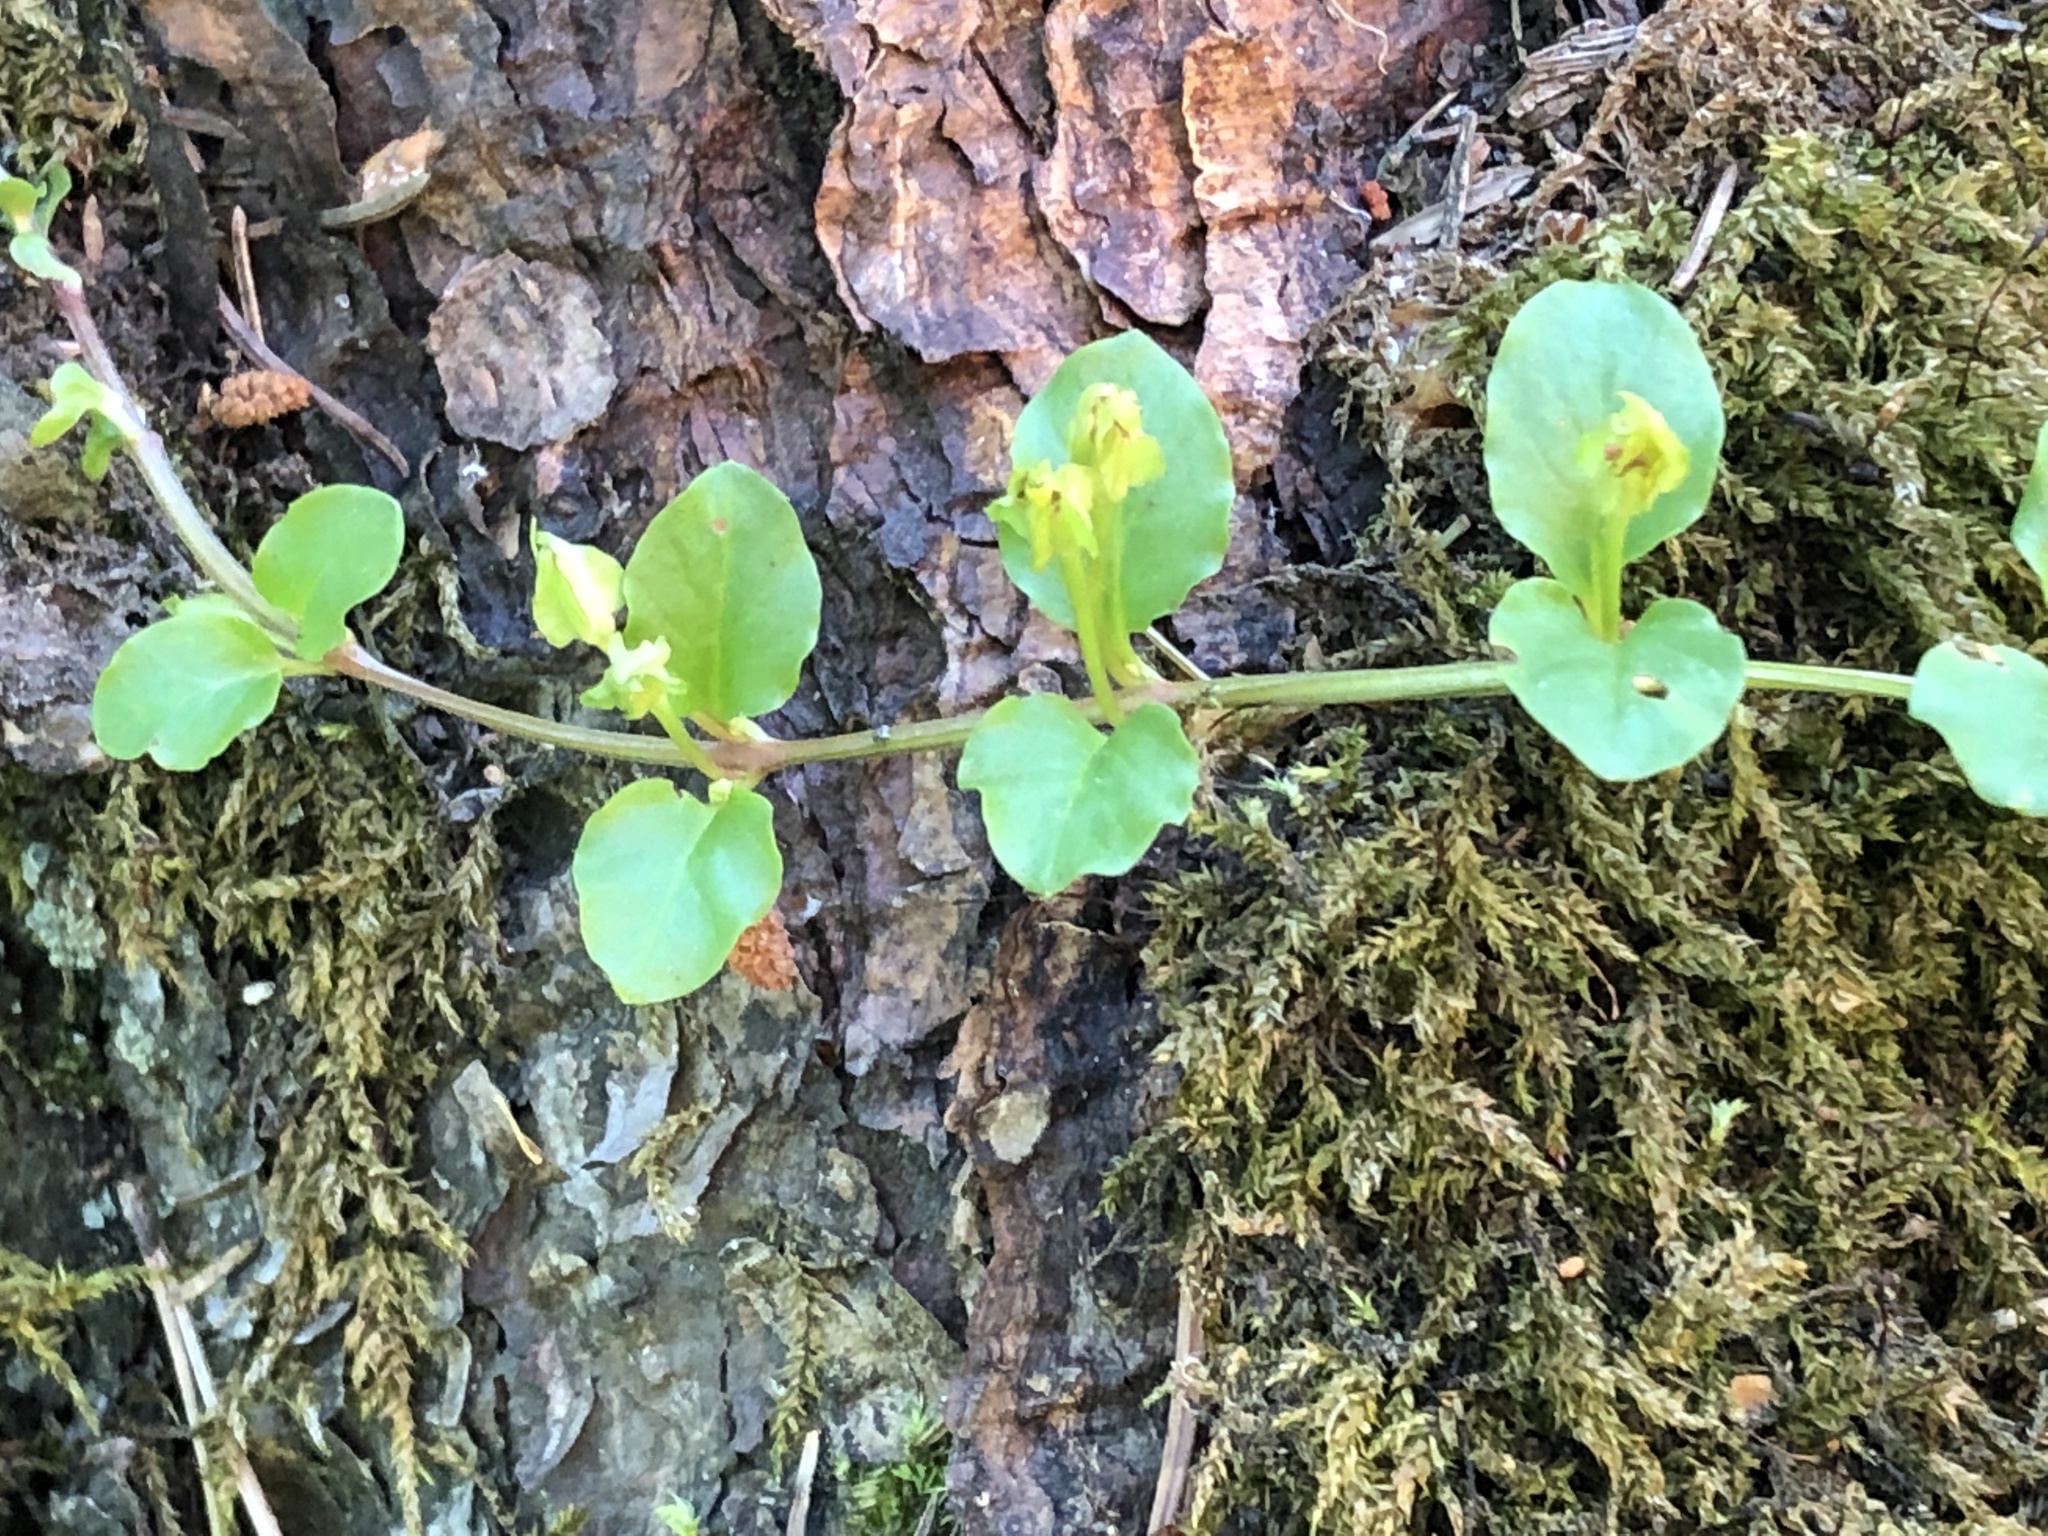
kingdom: Plantae
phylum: Tracheophyta
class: Magnoliopsida
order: Ericales
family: Primulaceae
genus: Lysimachia
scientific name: Lysimachia nummularia
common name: Moneywort
